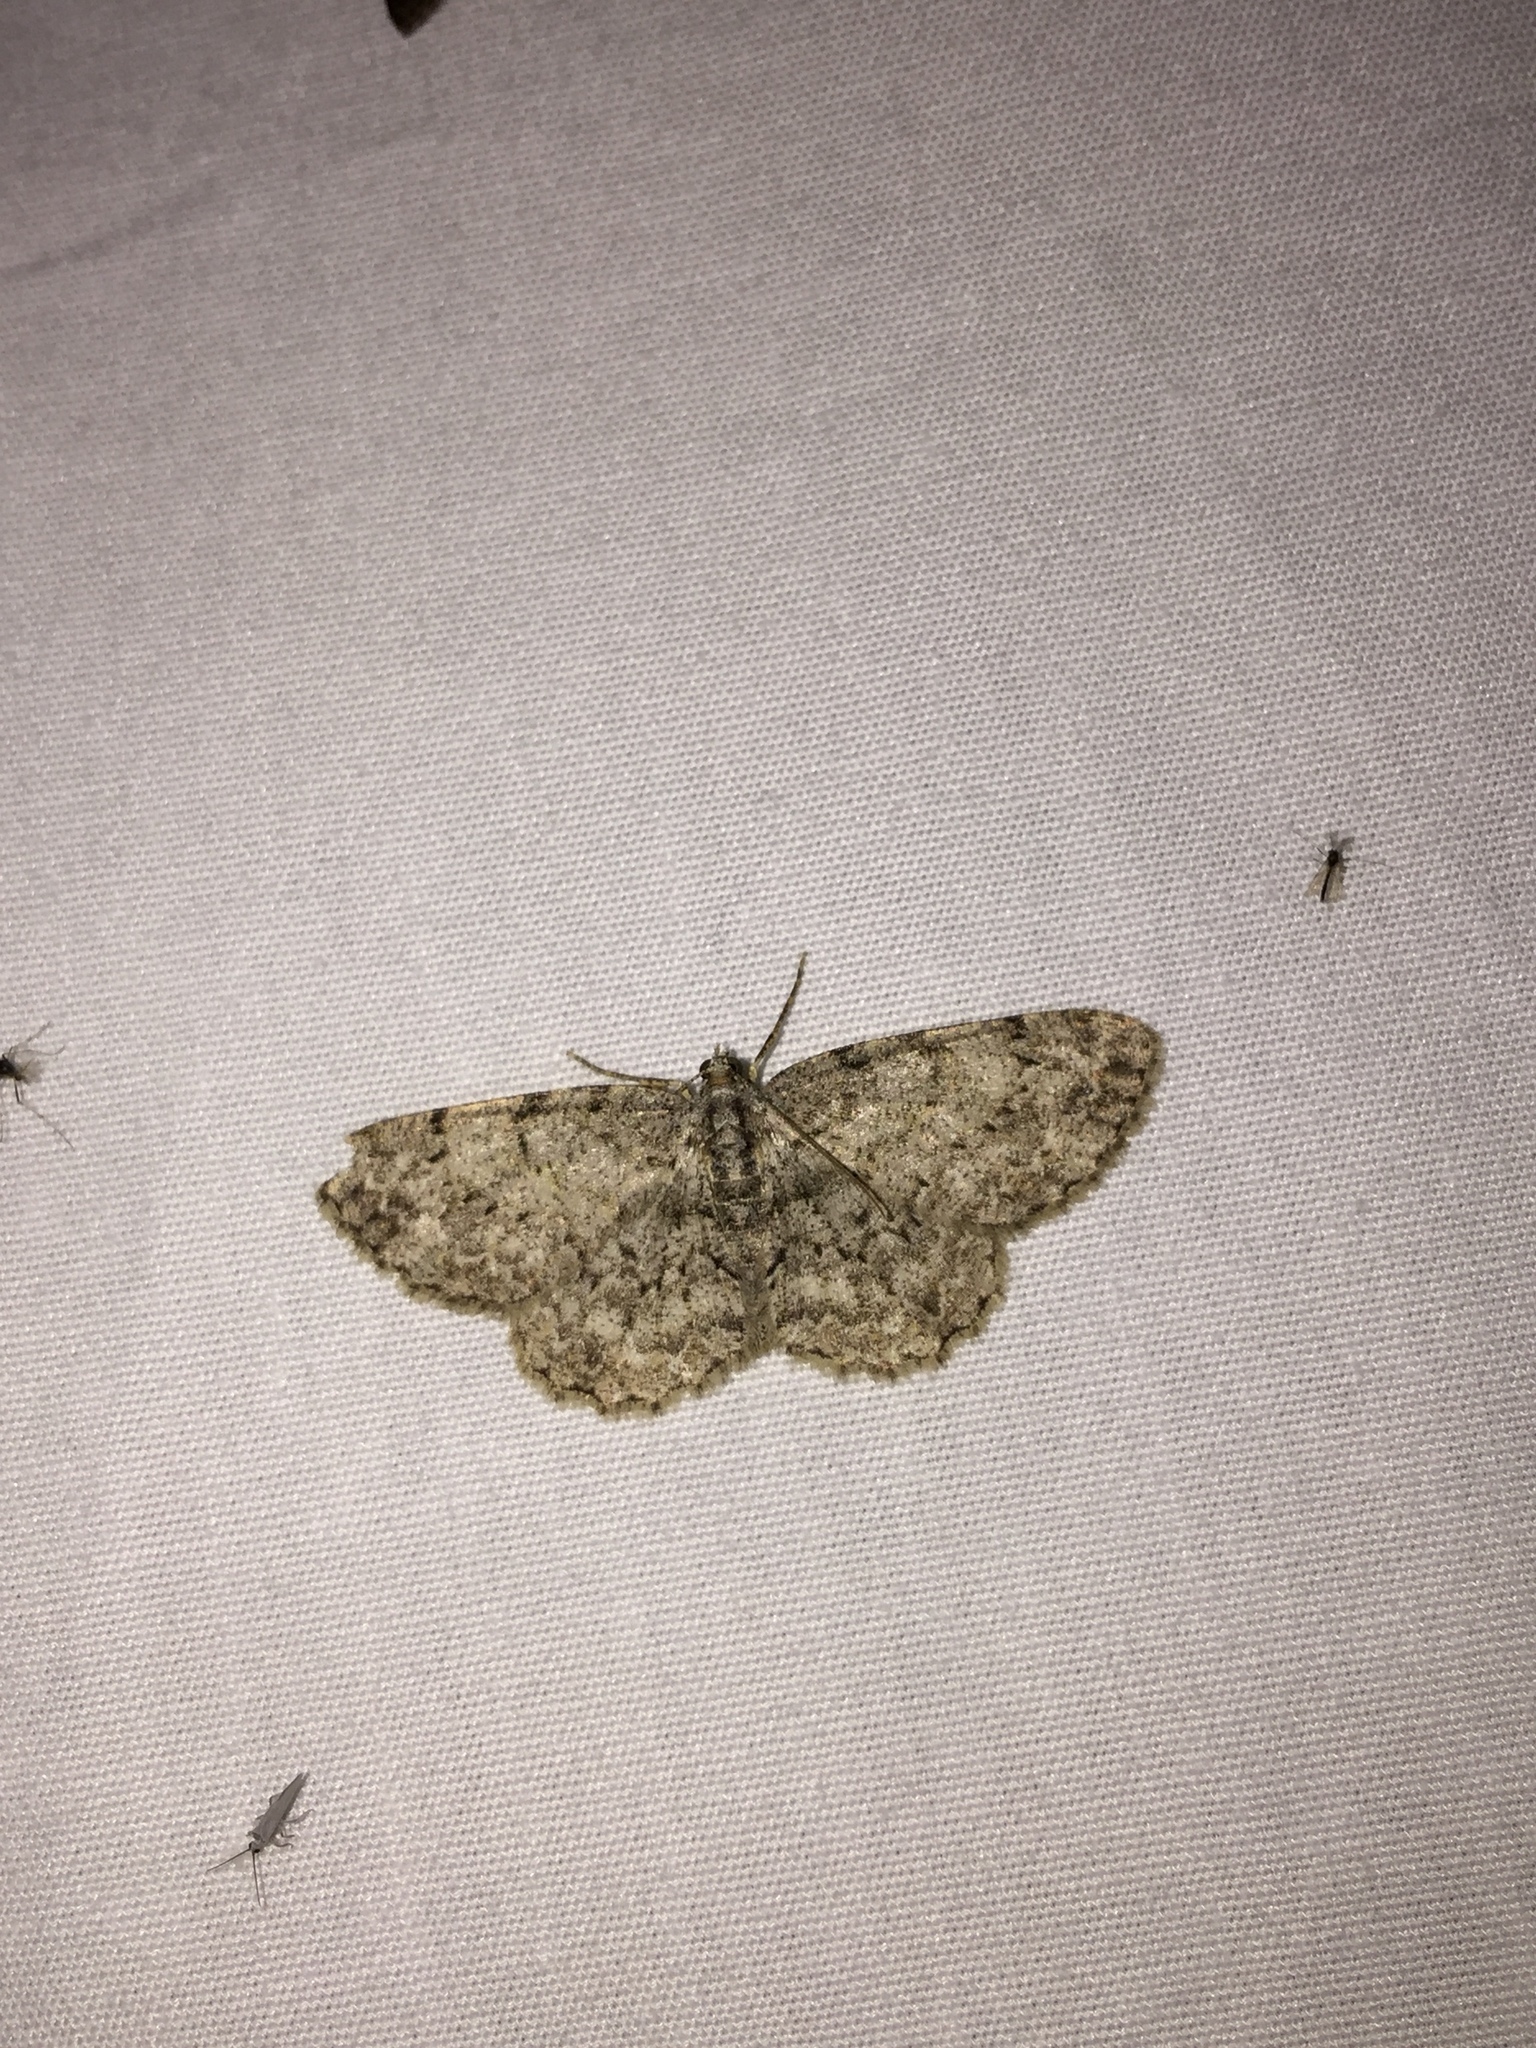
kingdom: Animalia
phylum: Arthropoda
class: Insecta
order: Lepidoptera
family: Geometridae
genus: Protoboarmia
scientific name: Protoboarmia porcelaria
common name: Porcelain gray
